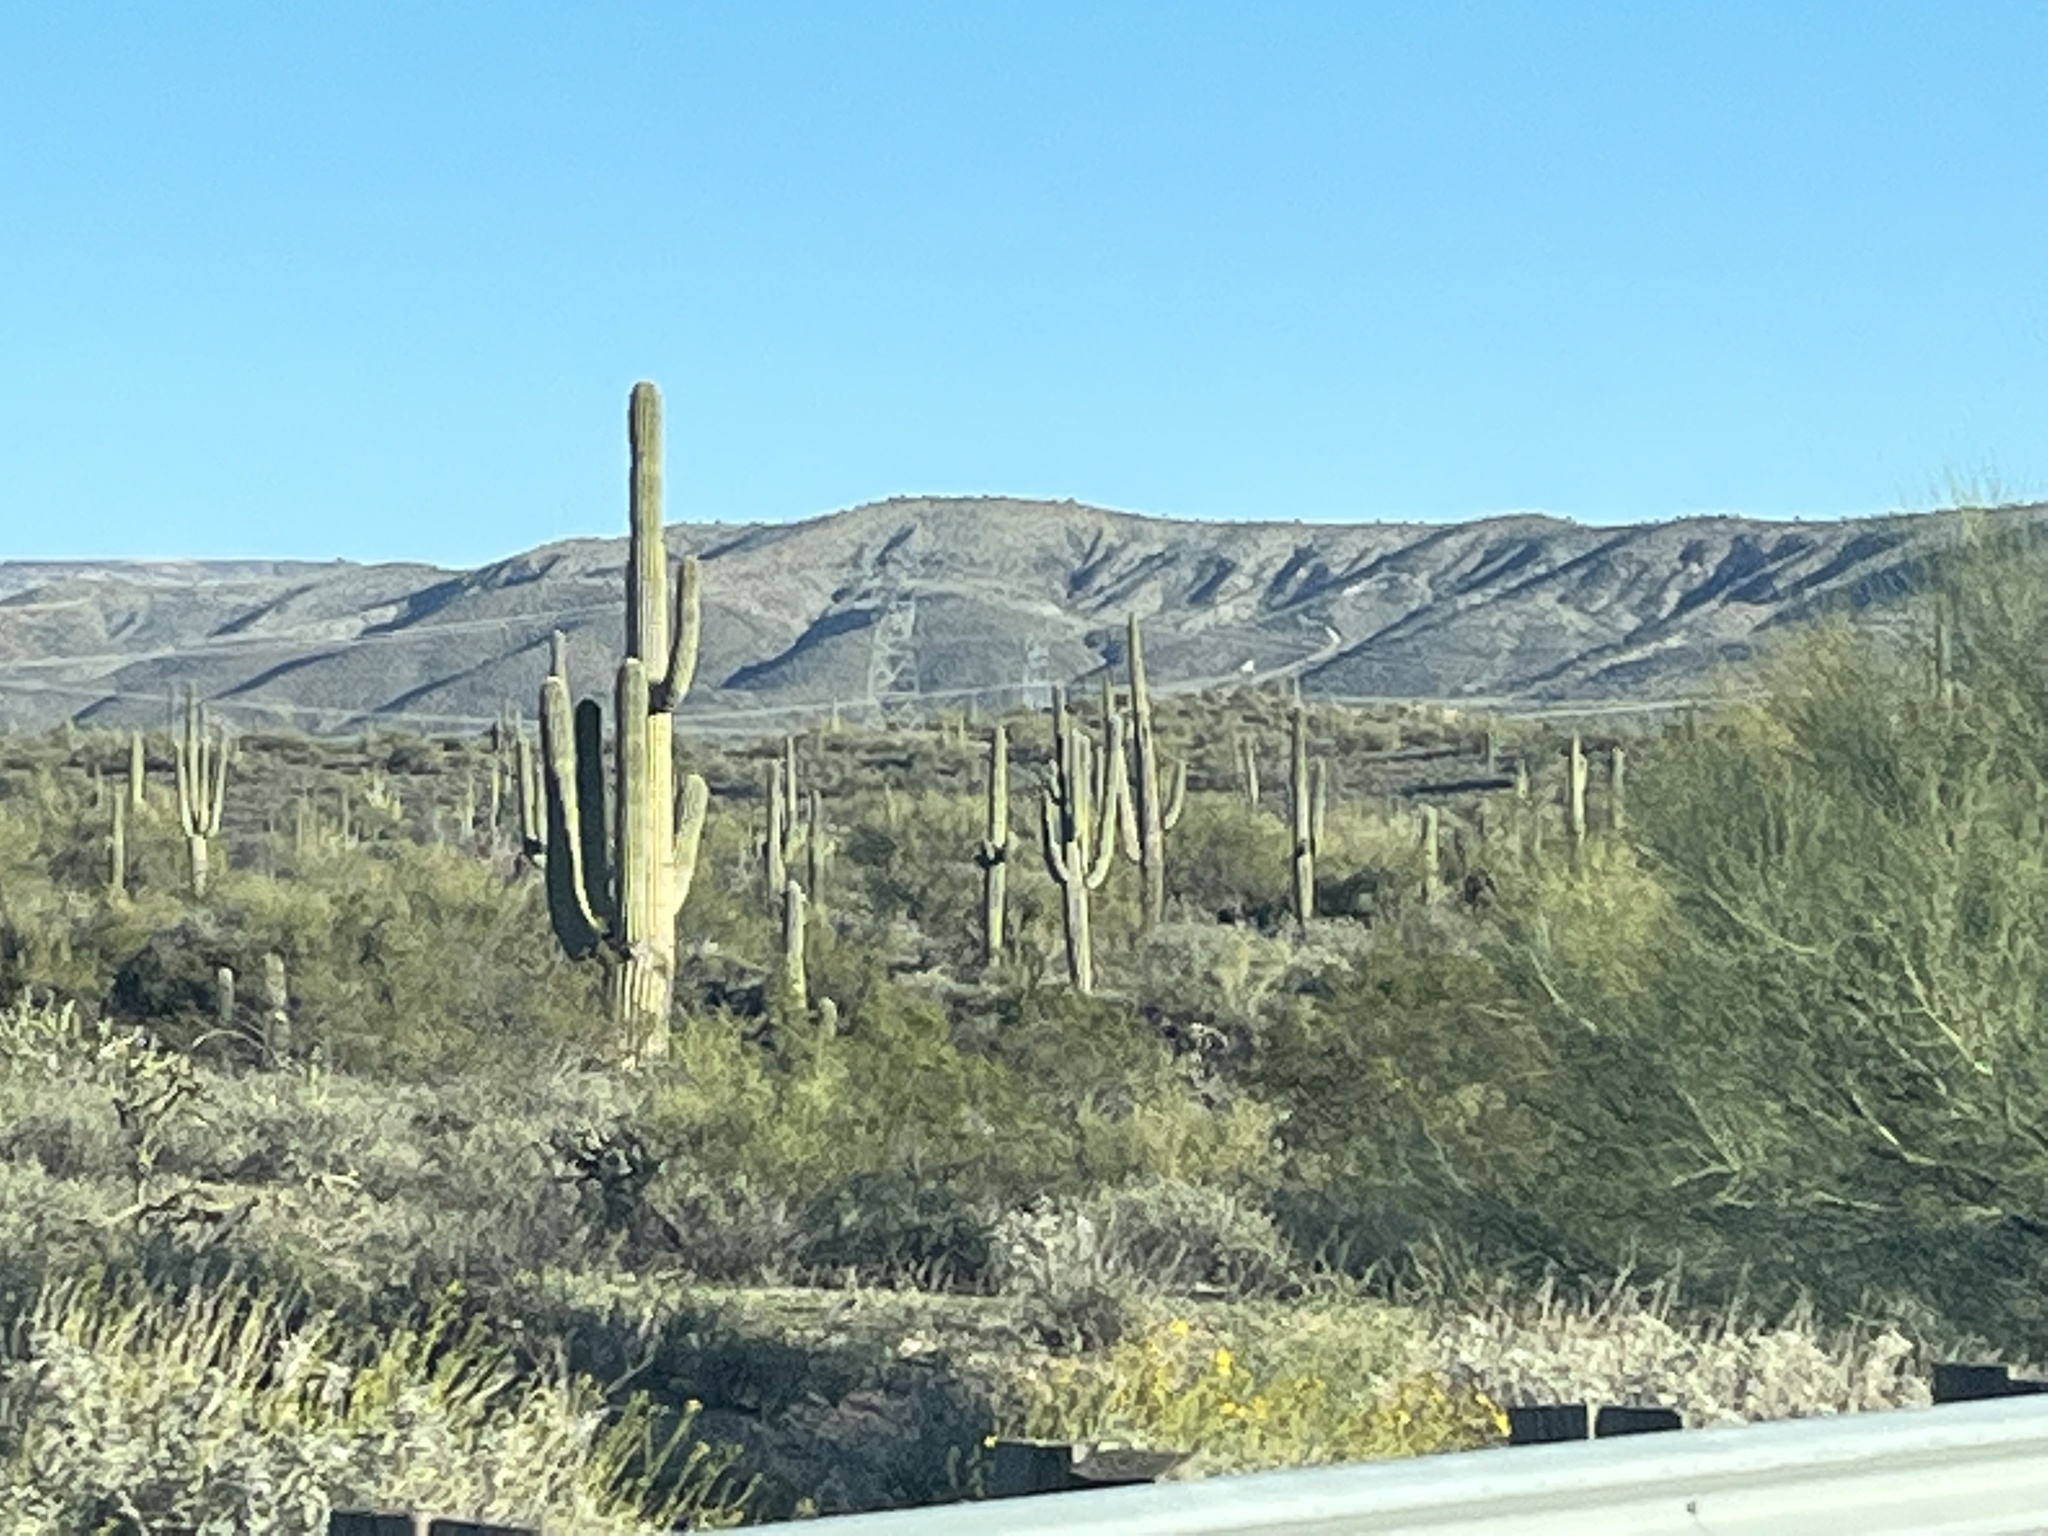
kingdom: Plantae
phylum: Tracheophyta
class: Magnoliopsida
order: Caryophyllales
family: Cactaceae
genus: Carnegiea
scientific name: Carnegiea gigantea
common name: Saguaro
